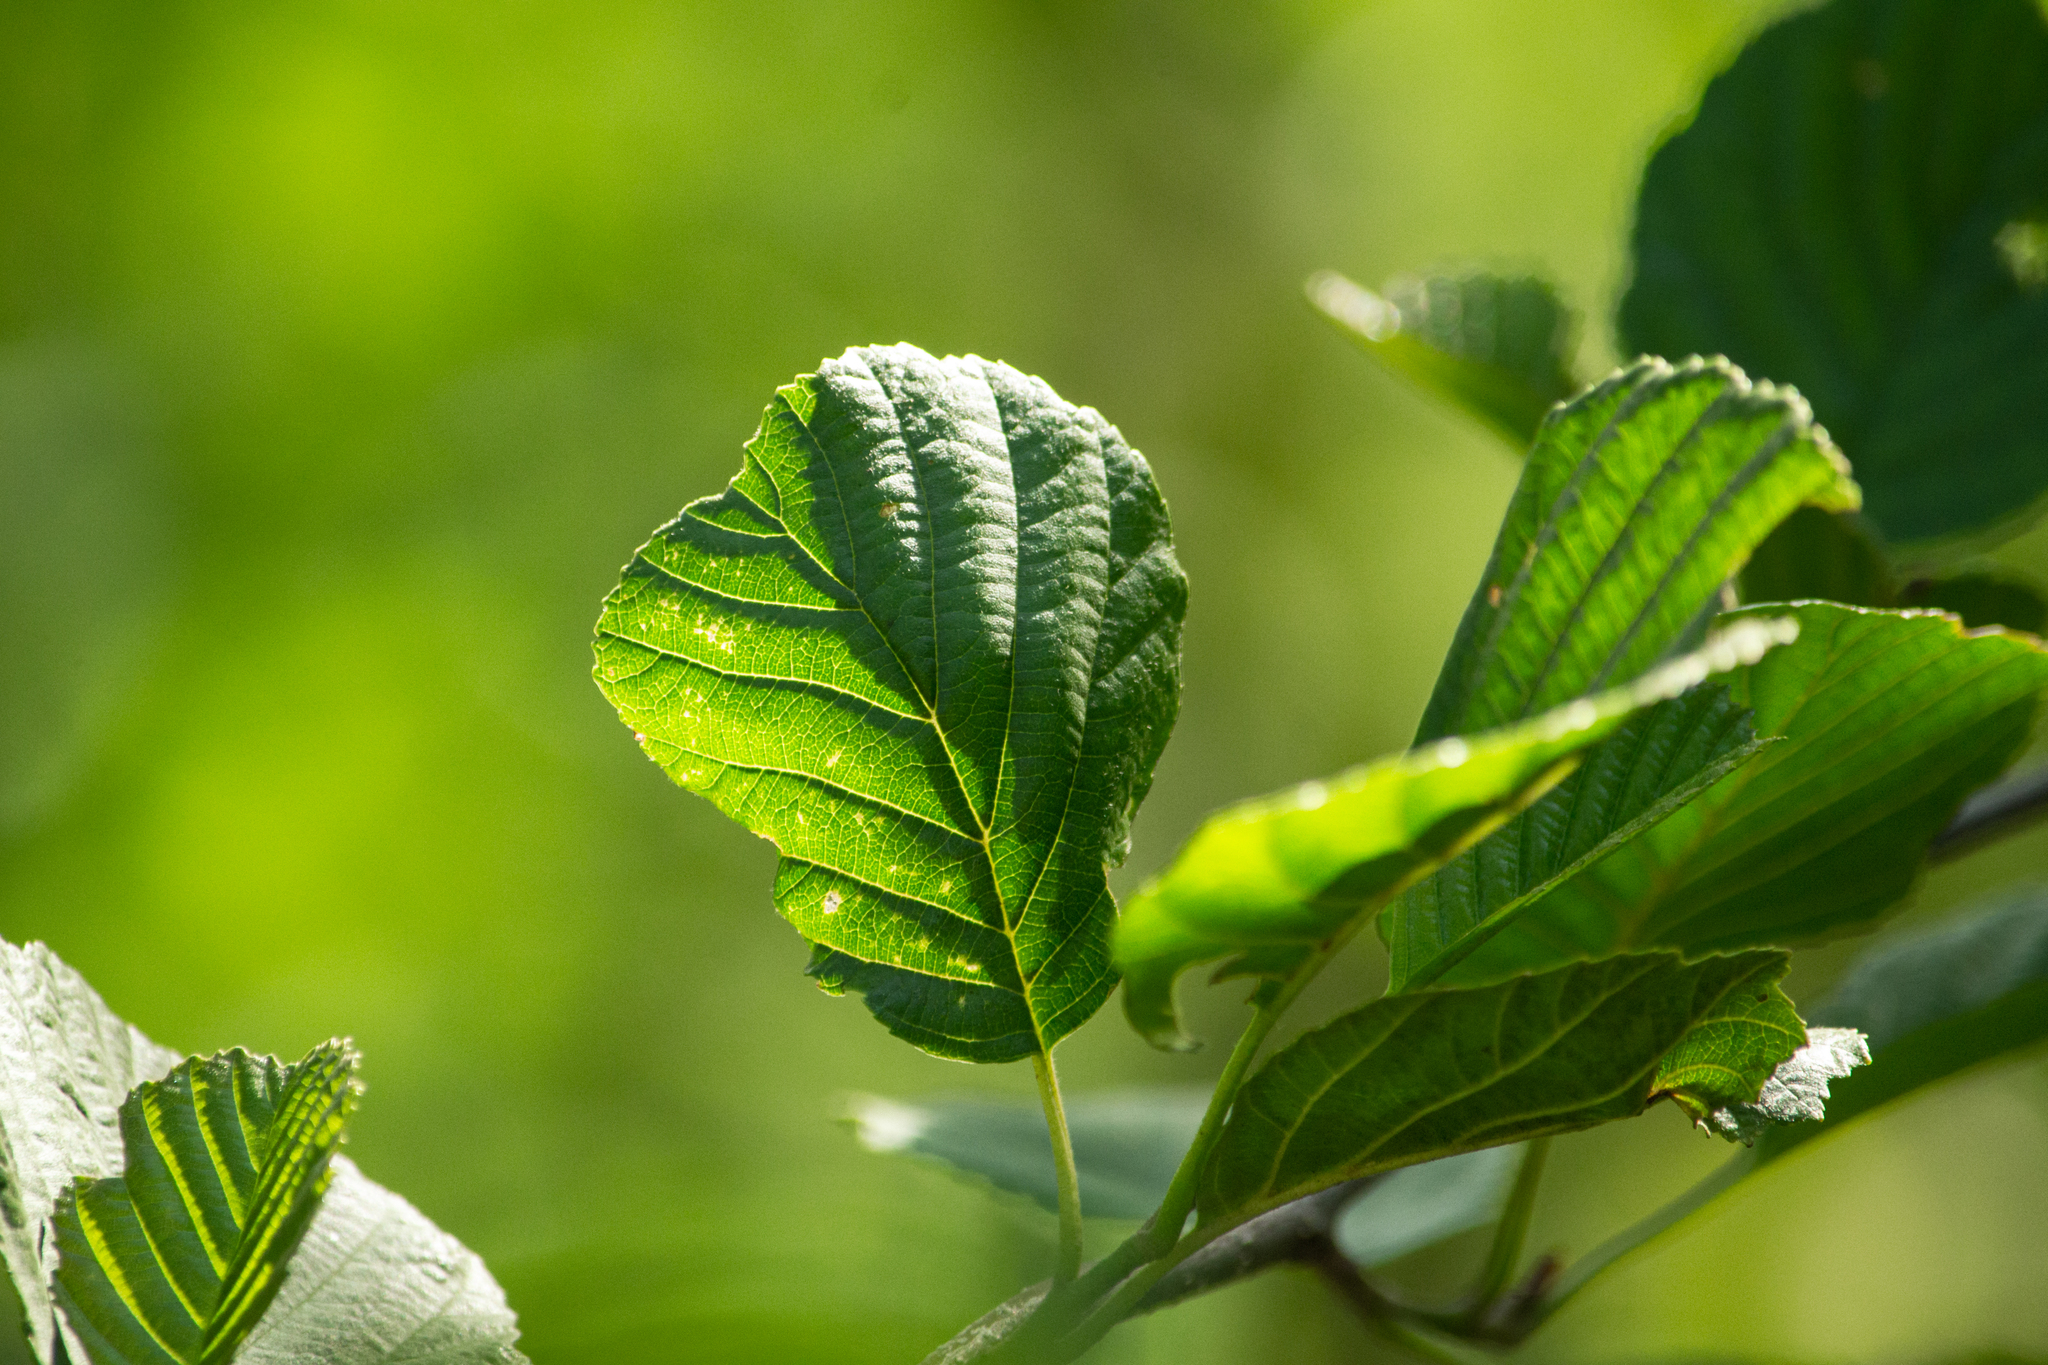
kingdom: Plantae
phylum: Tracheophyta
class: Magnoliopsida
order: Fagales
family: Betulaceae
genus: Alnus
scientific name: Alnus glutinosa
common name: Black alder
